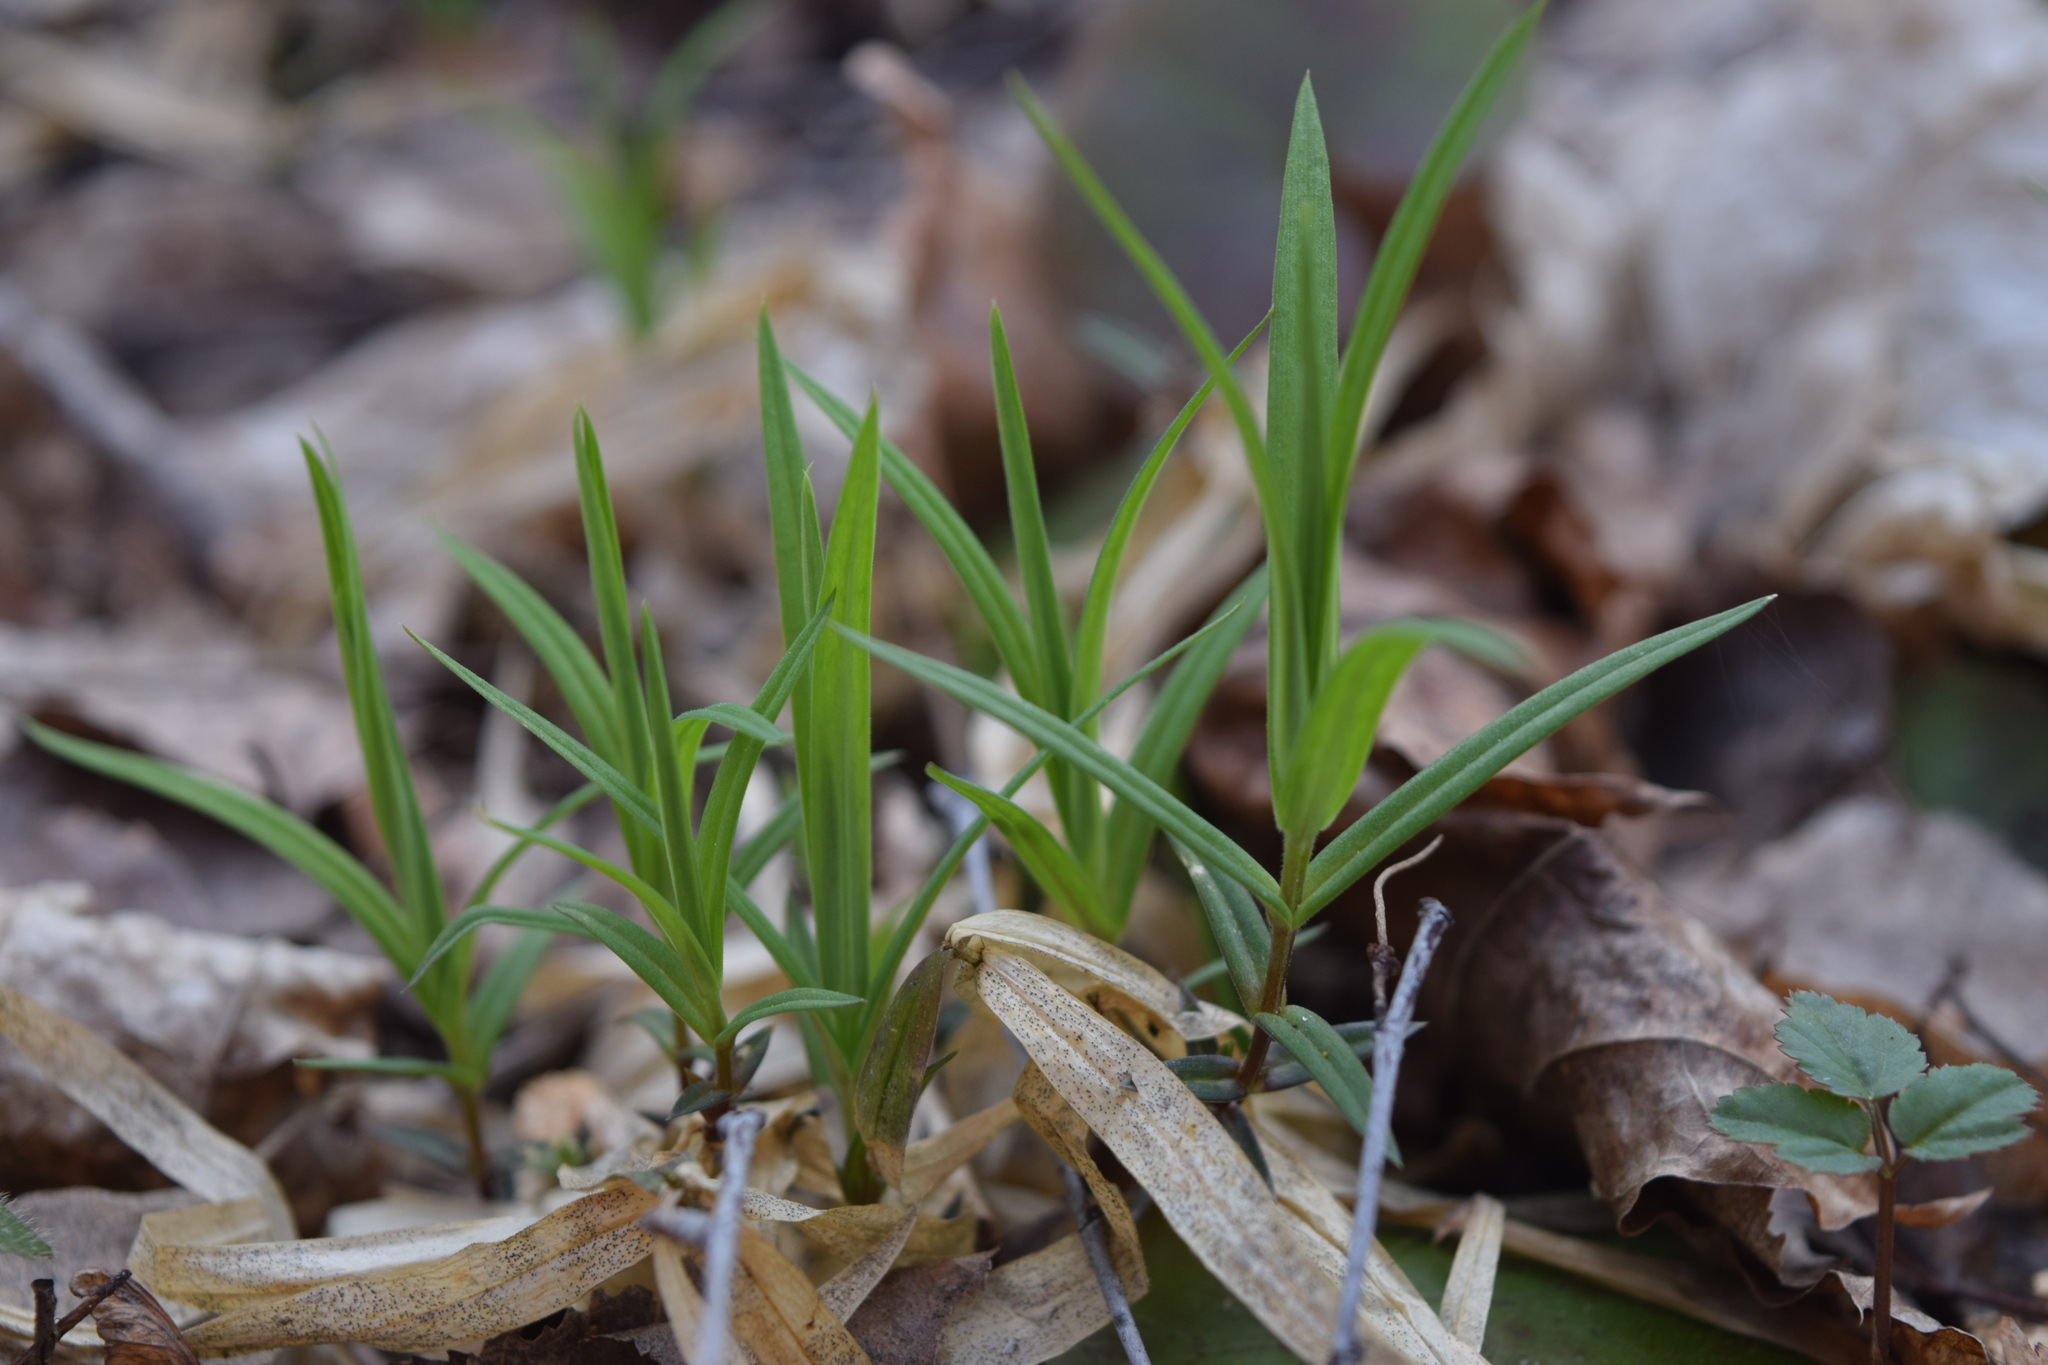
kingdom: Plantae
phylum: Tracheophyta
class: Magnoliopsida
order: Caryophyllales
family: Caryophyllaceae
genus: Rabelera
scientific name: Rabelera holostea
